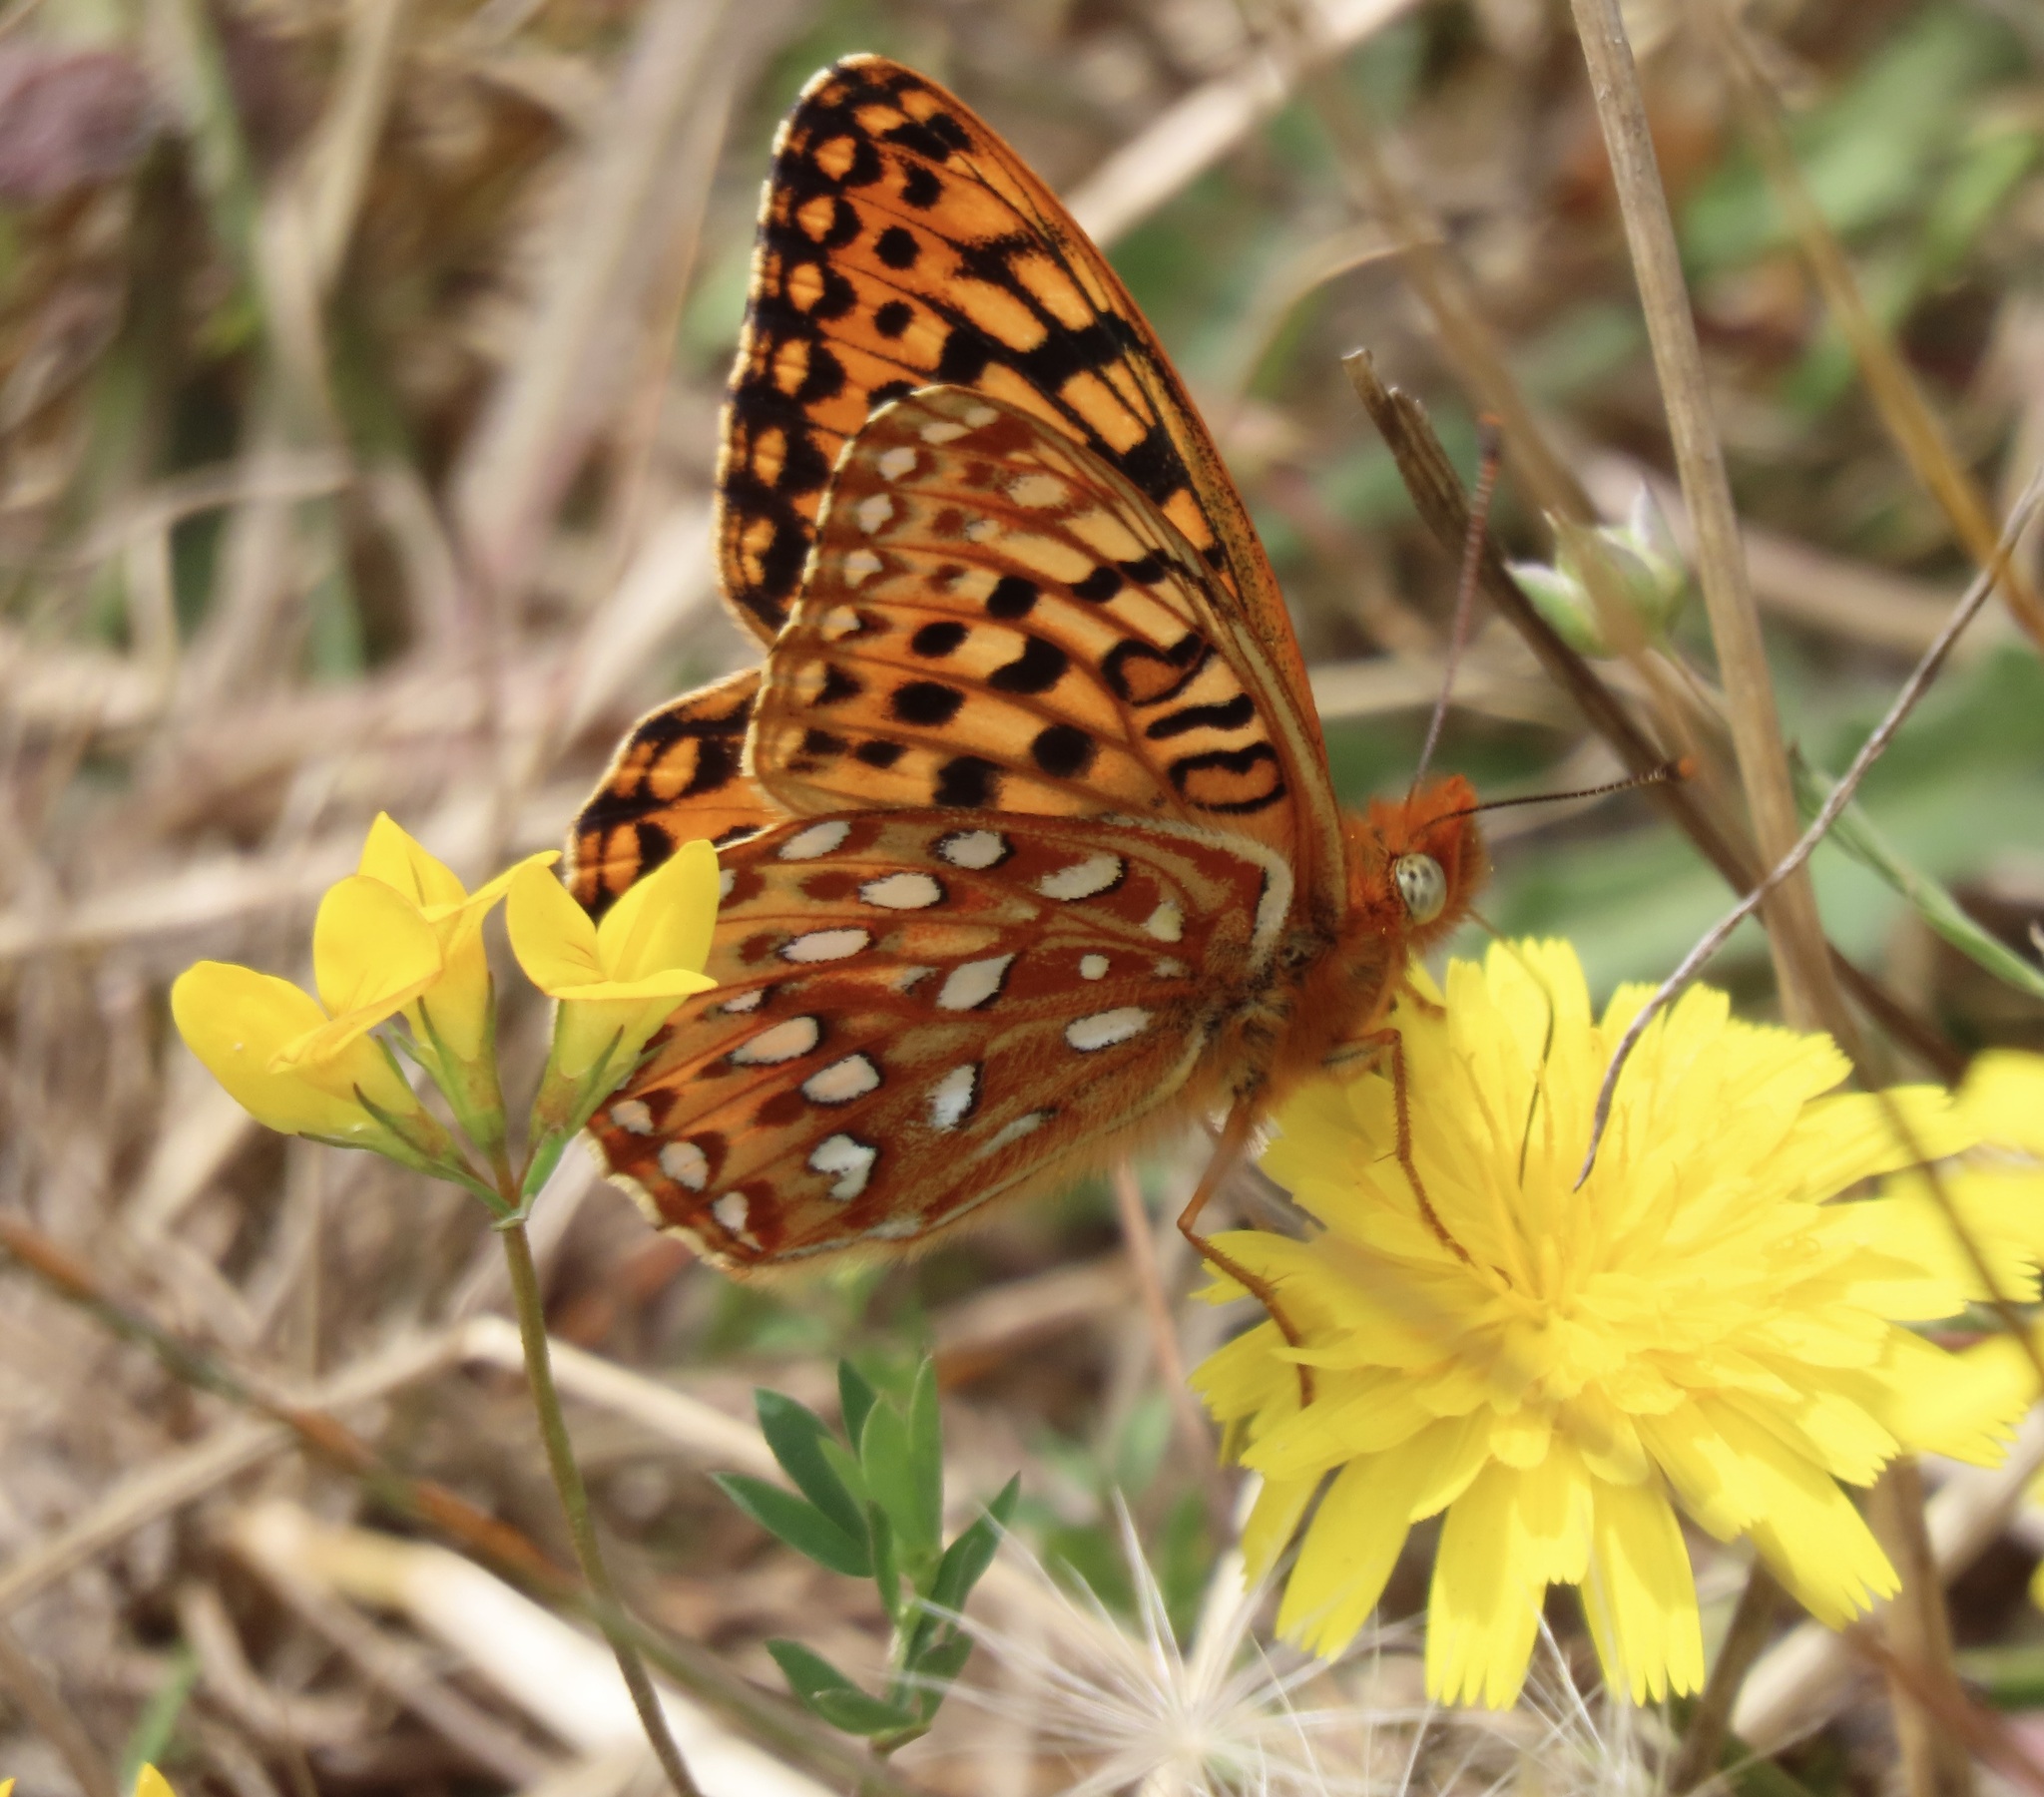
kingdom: Animalia
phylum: Arthropoda
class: Insecta
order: Lepidoptera
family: Nymphalidae
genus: Speyeria
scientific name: Speyeria zerene
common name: Zerene fritillary
